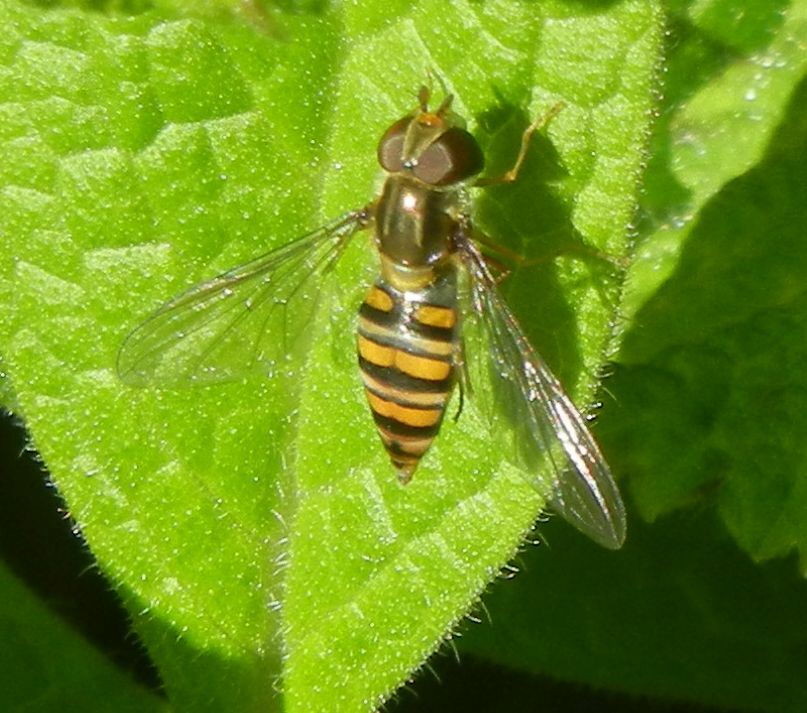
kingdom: Animalia
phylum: Arthropoda
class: Insecta
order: Diptera
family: Syrphidae
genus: Episyrphus
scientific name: Episyrphus balteatus
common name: Marmalade hoverfly
